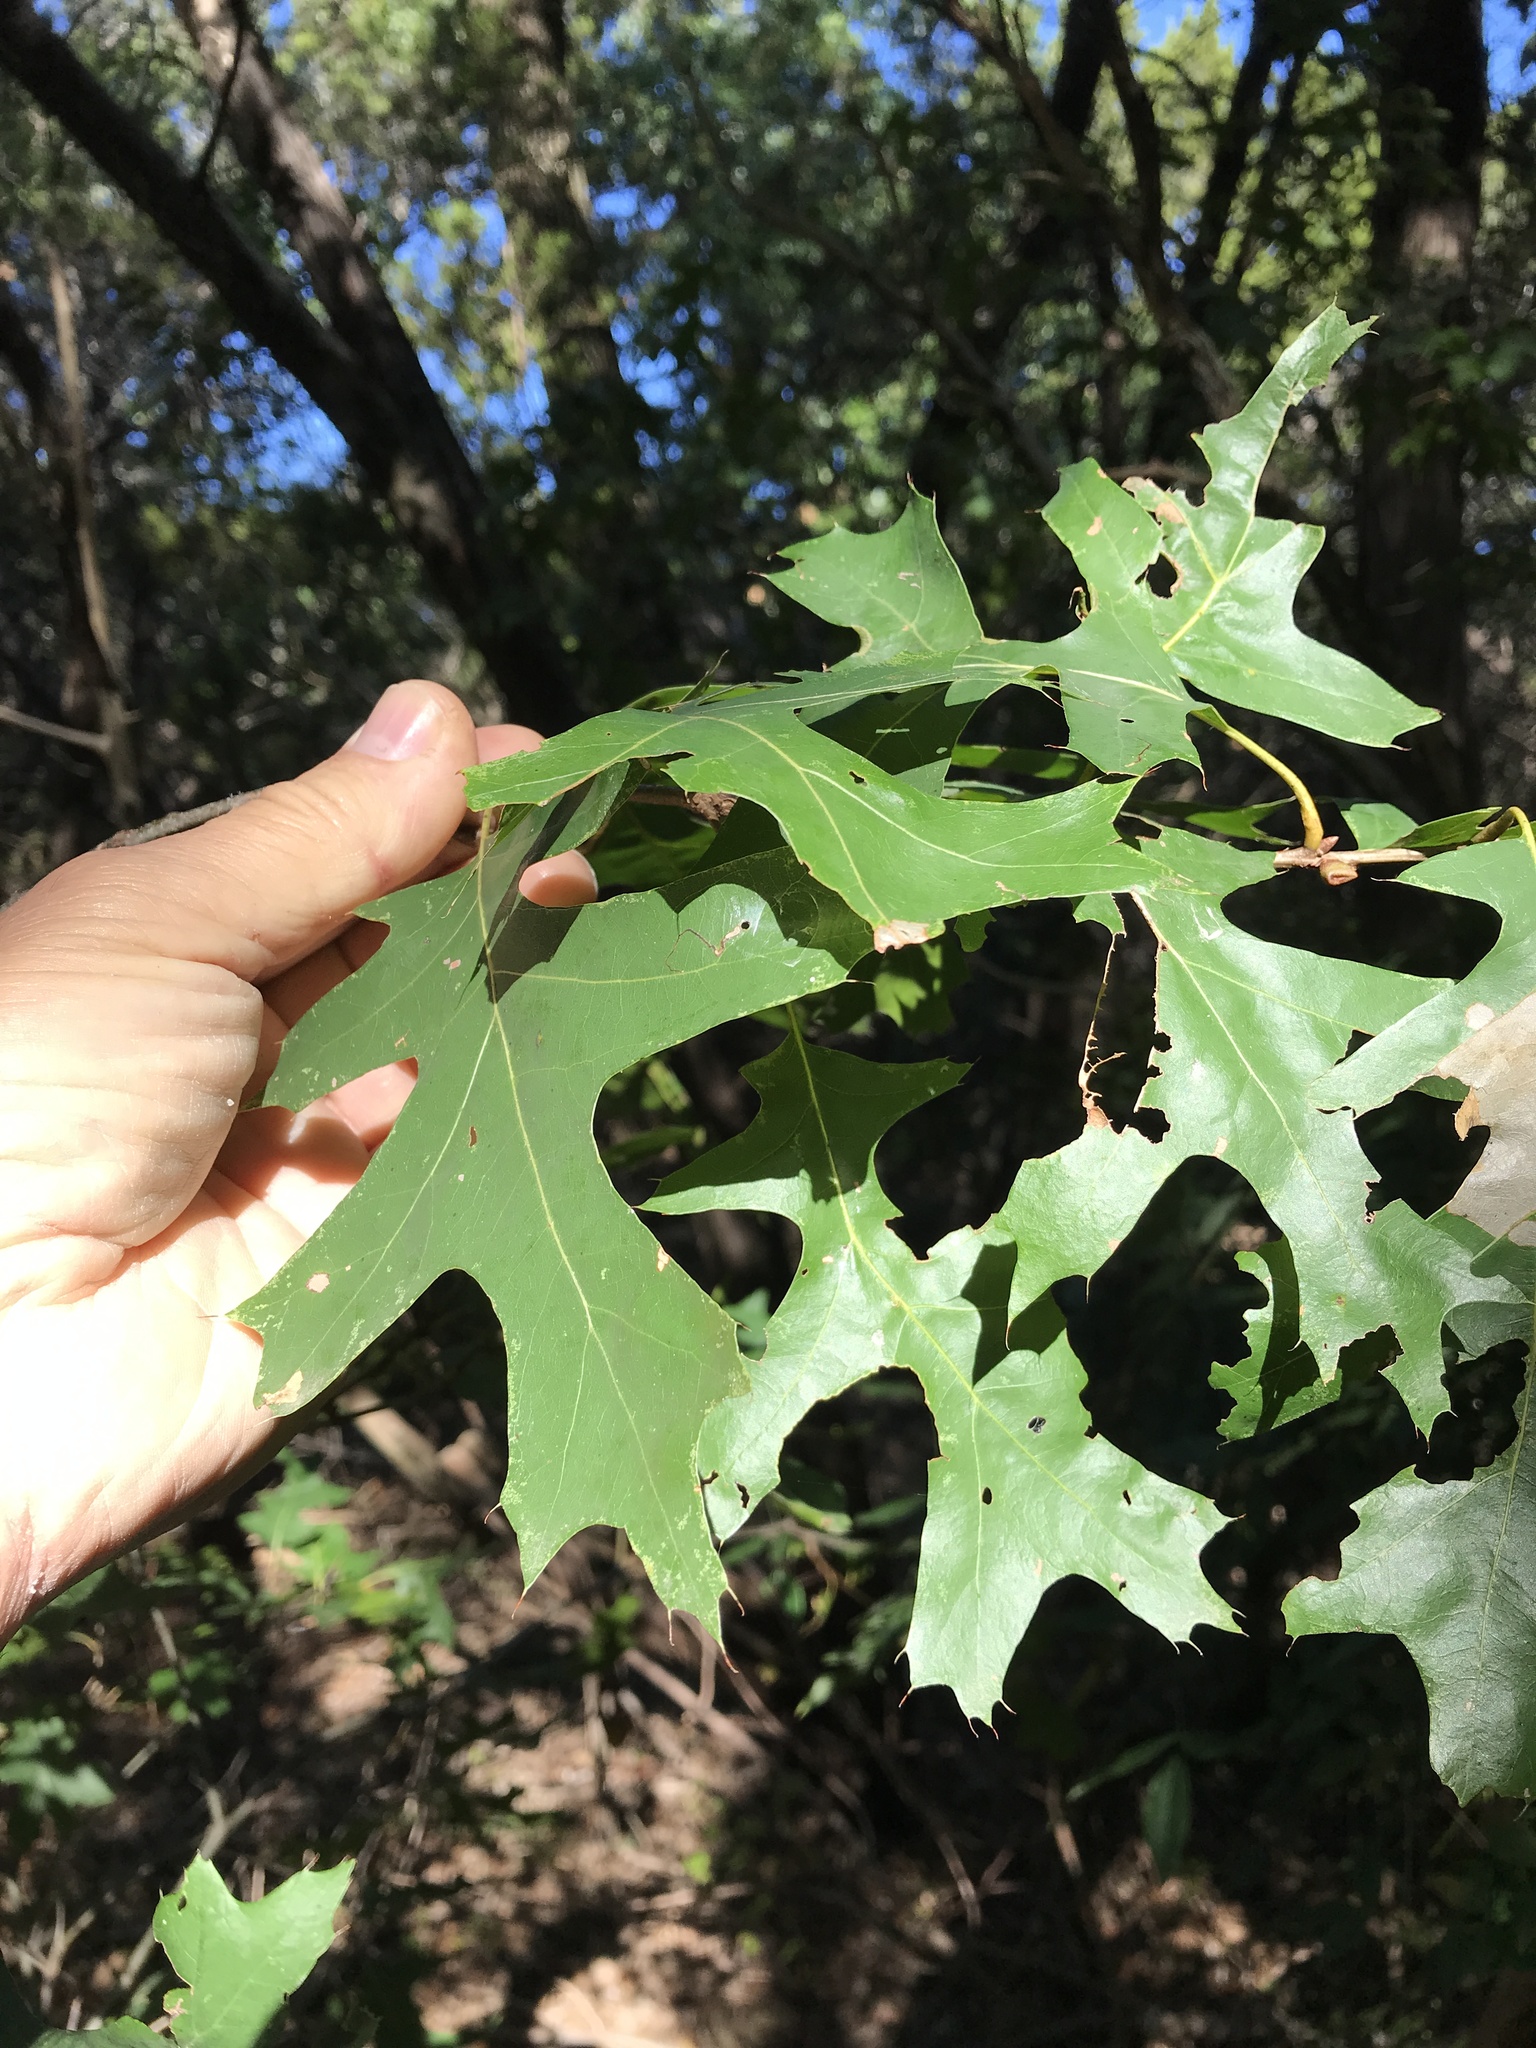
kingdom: Plantae
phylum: Tracheophyta
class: Magnoliopsida
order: Fagales
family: Fagaceae
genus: Quercus
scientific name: Quercus buckleyi
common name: Buckley oak
